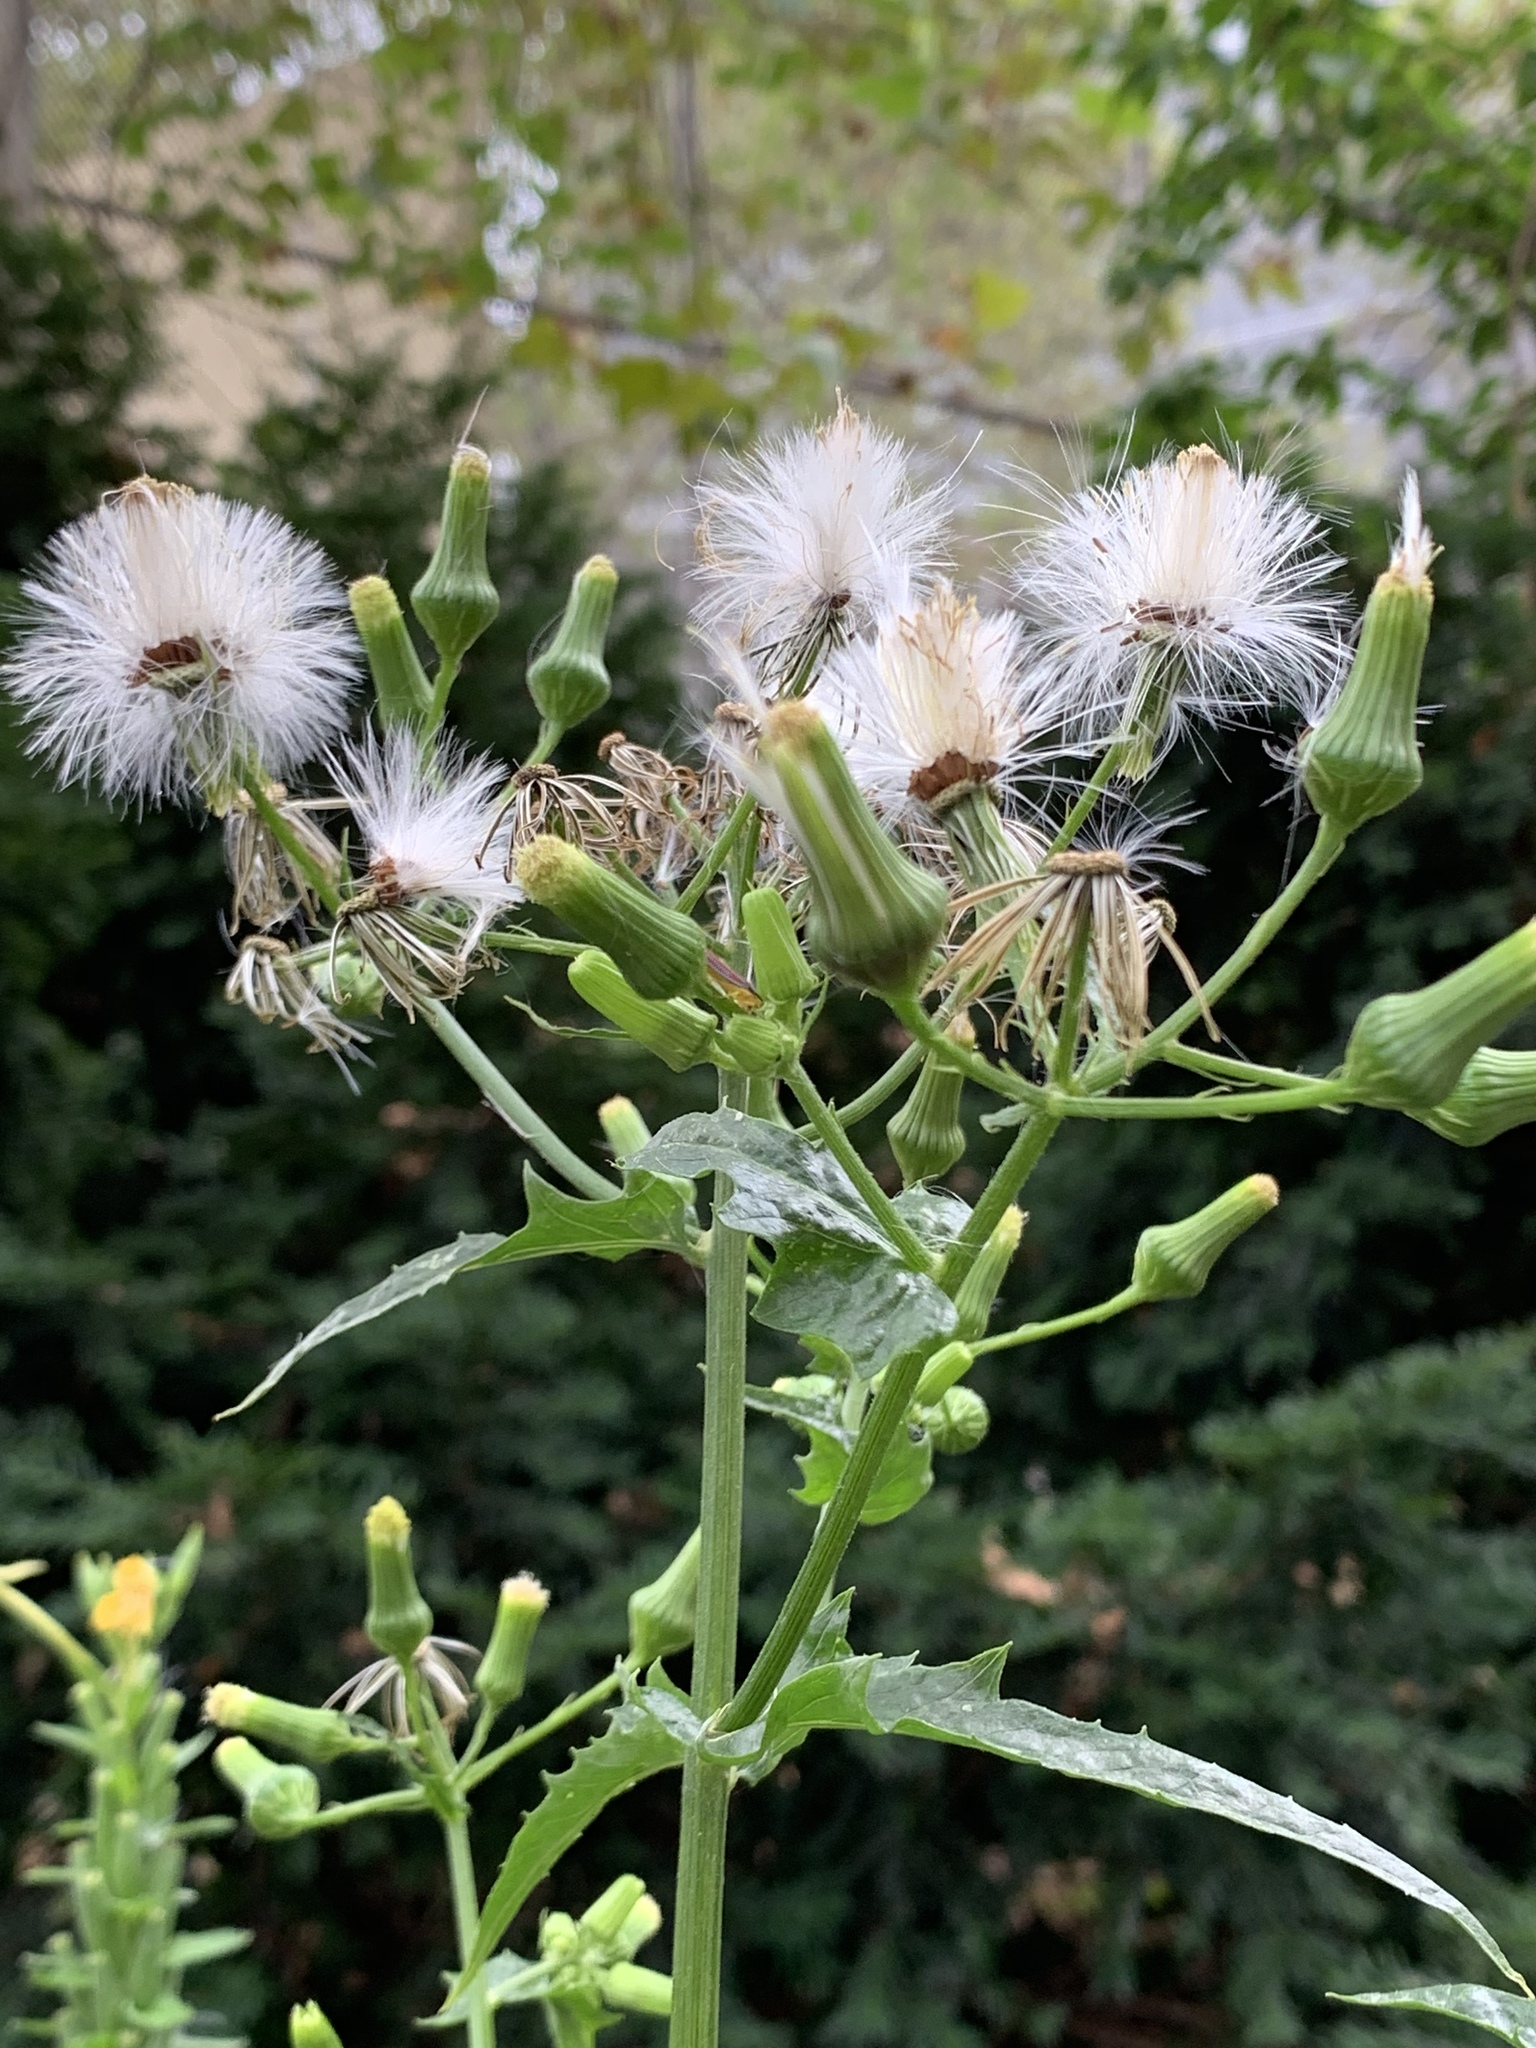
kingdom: Plantae
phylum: Tracheophyta
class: Magnoliopsida
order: Asterales
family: Asteraceae
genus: Erechtites
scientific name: Erechtites hieraciifolius
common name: American burnweed
